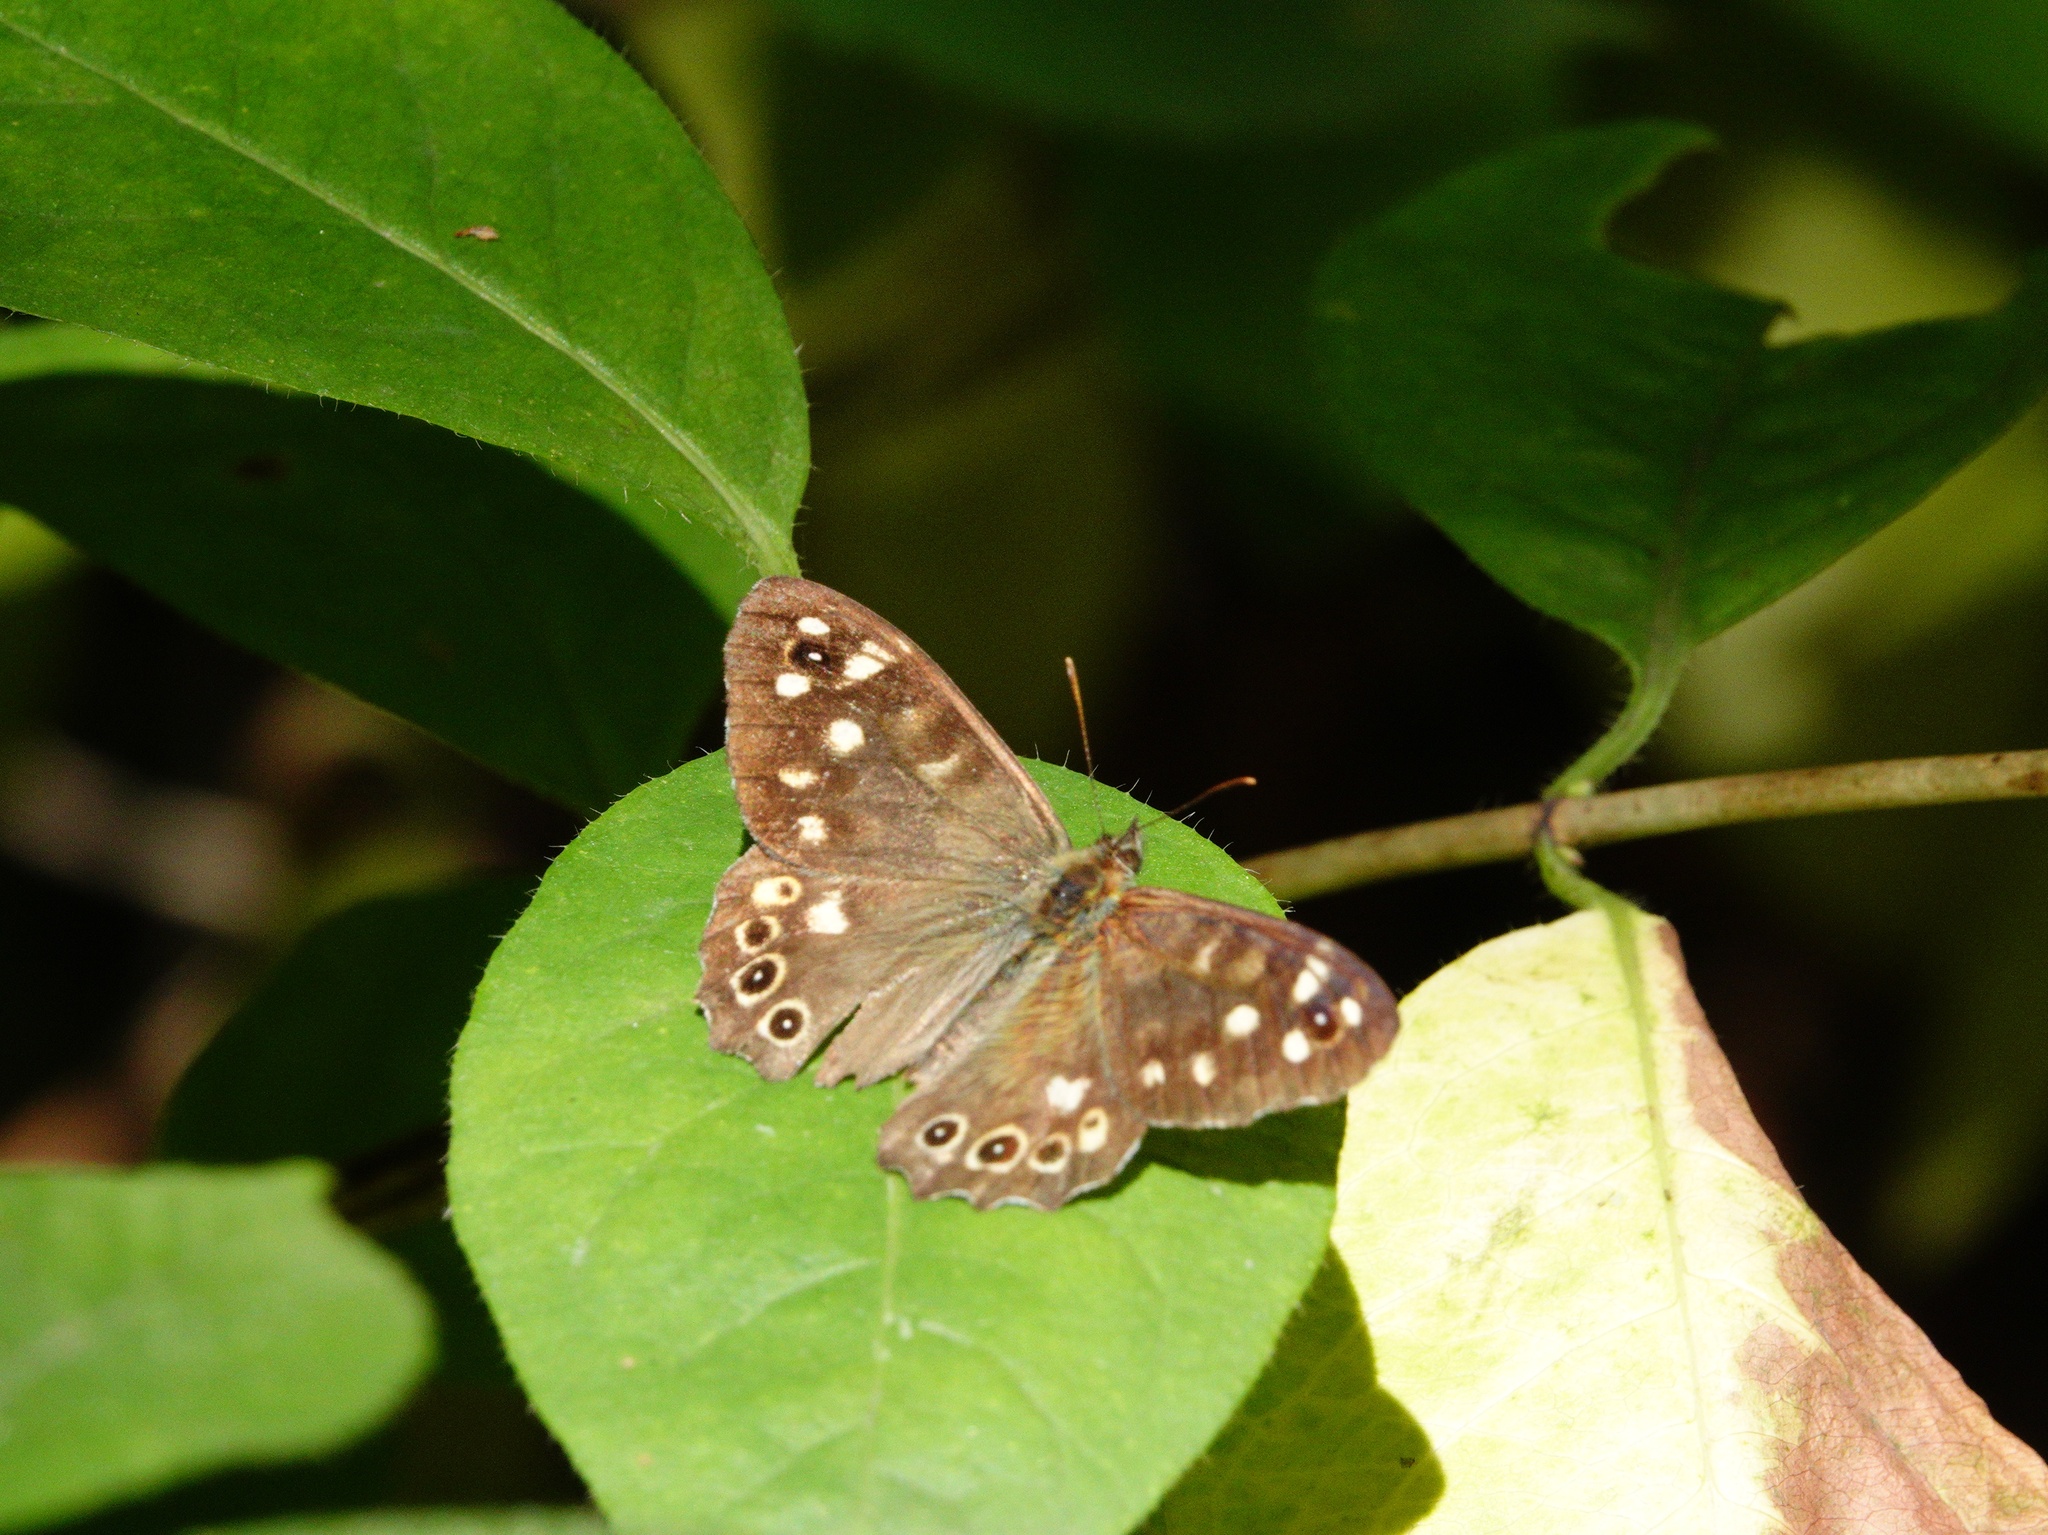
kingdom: Animalia
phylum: Arthropoda
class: Insecta
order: Lepidoptera
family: Nymphalidae
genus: Pararge
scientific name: Pararge aegeria
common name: Speckled wood
